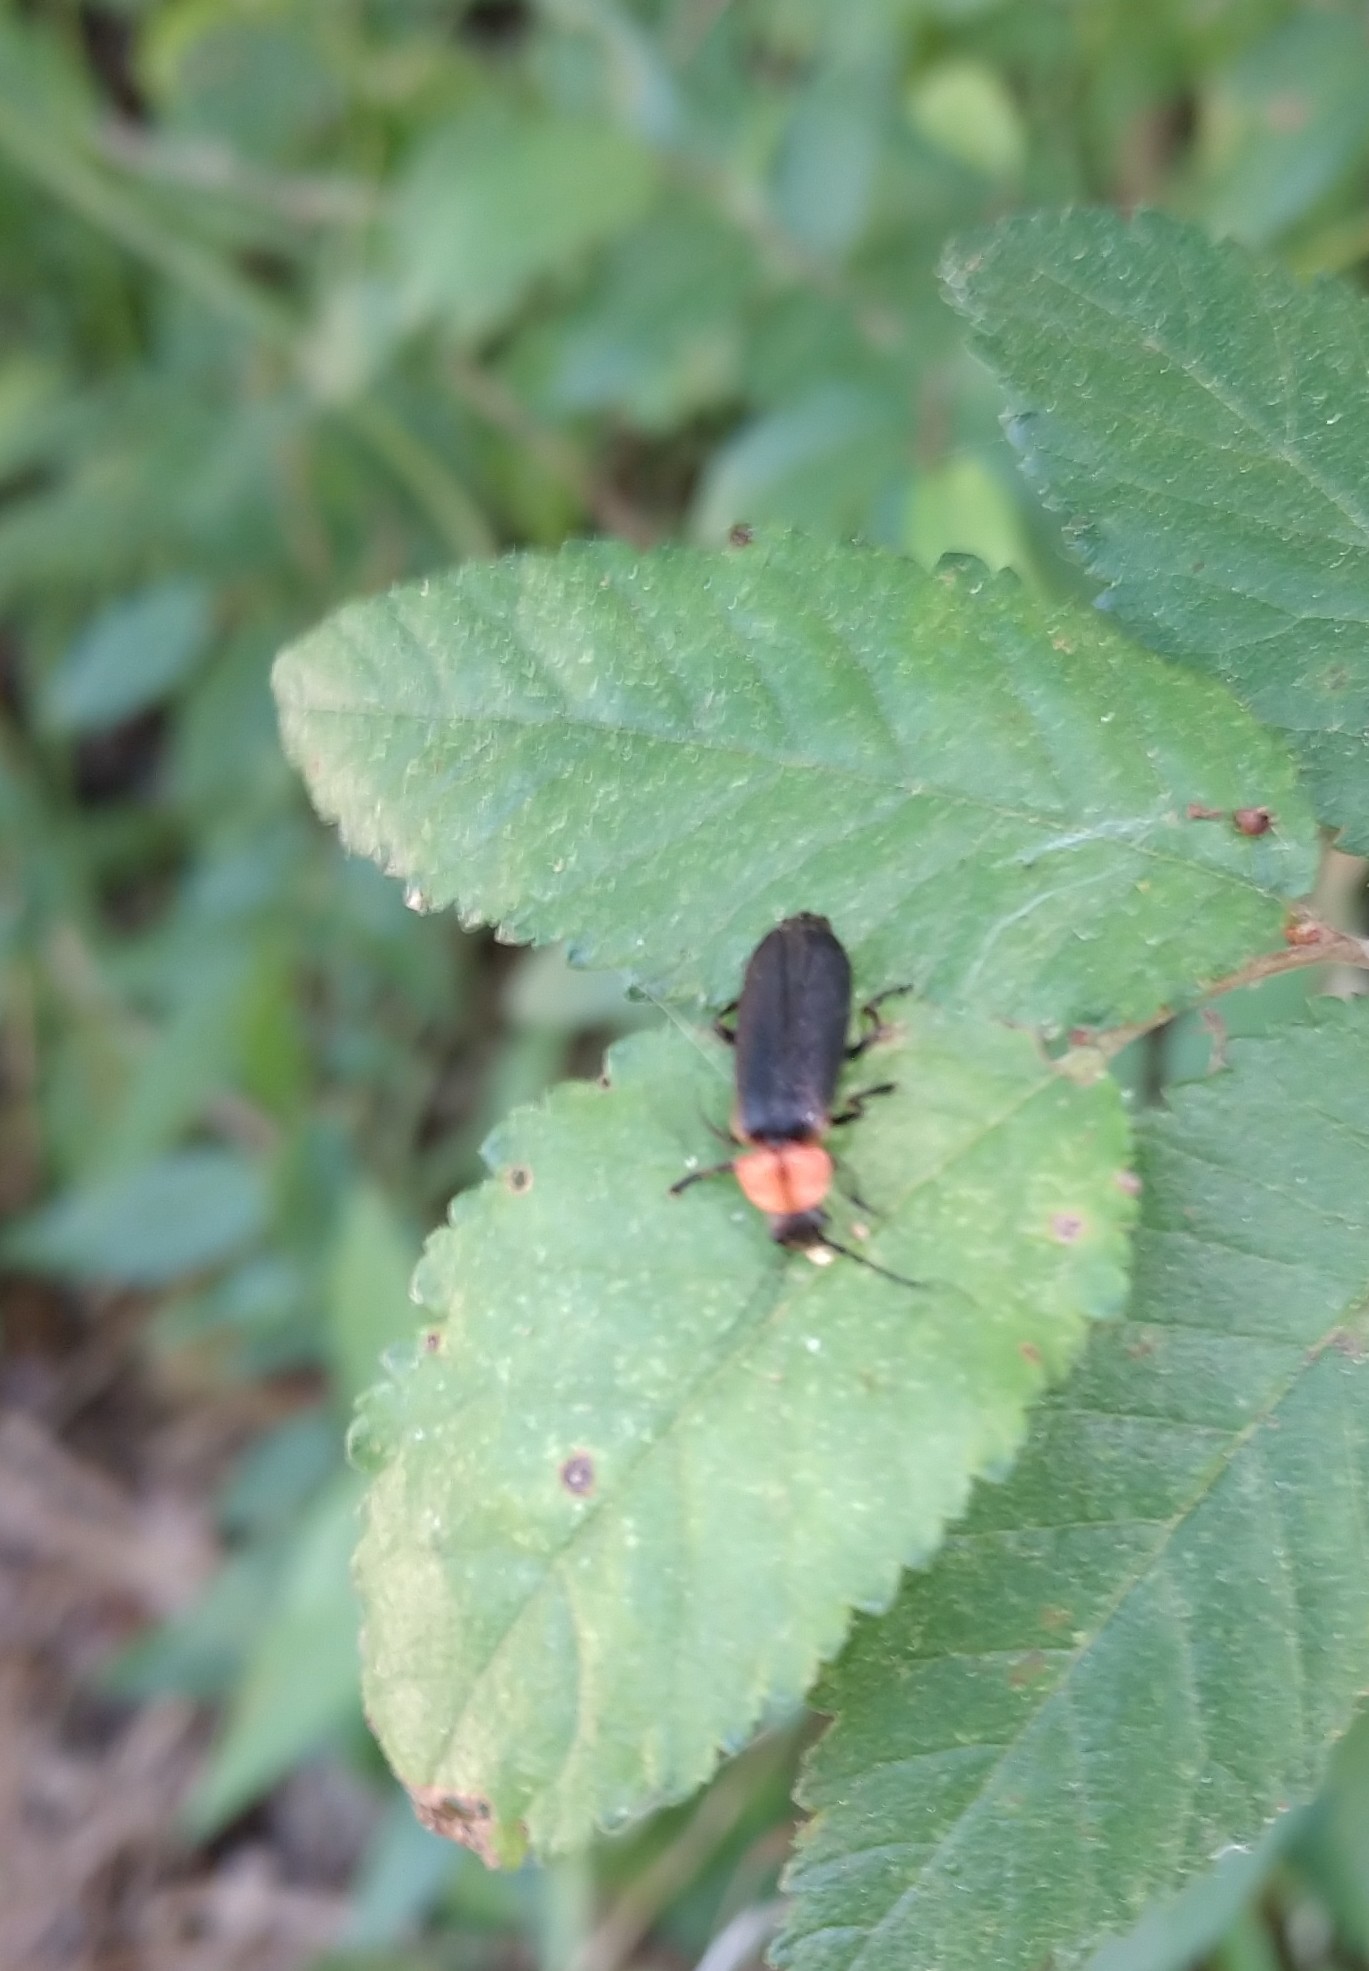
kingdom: Animalia
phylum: Arthropoda
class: Insecta
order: Coleoptera
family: Cantharidae
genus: Discodon
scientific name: Discodon planicolle
